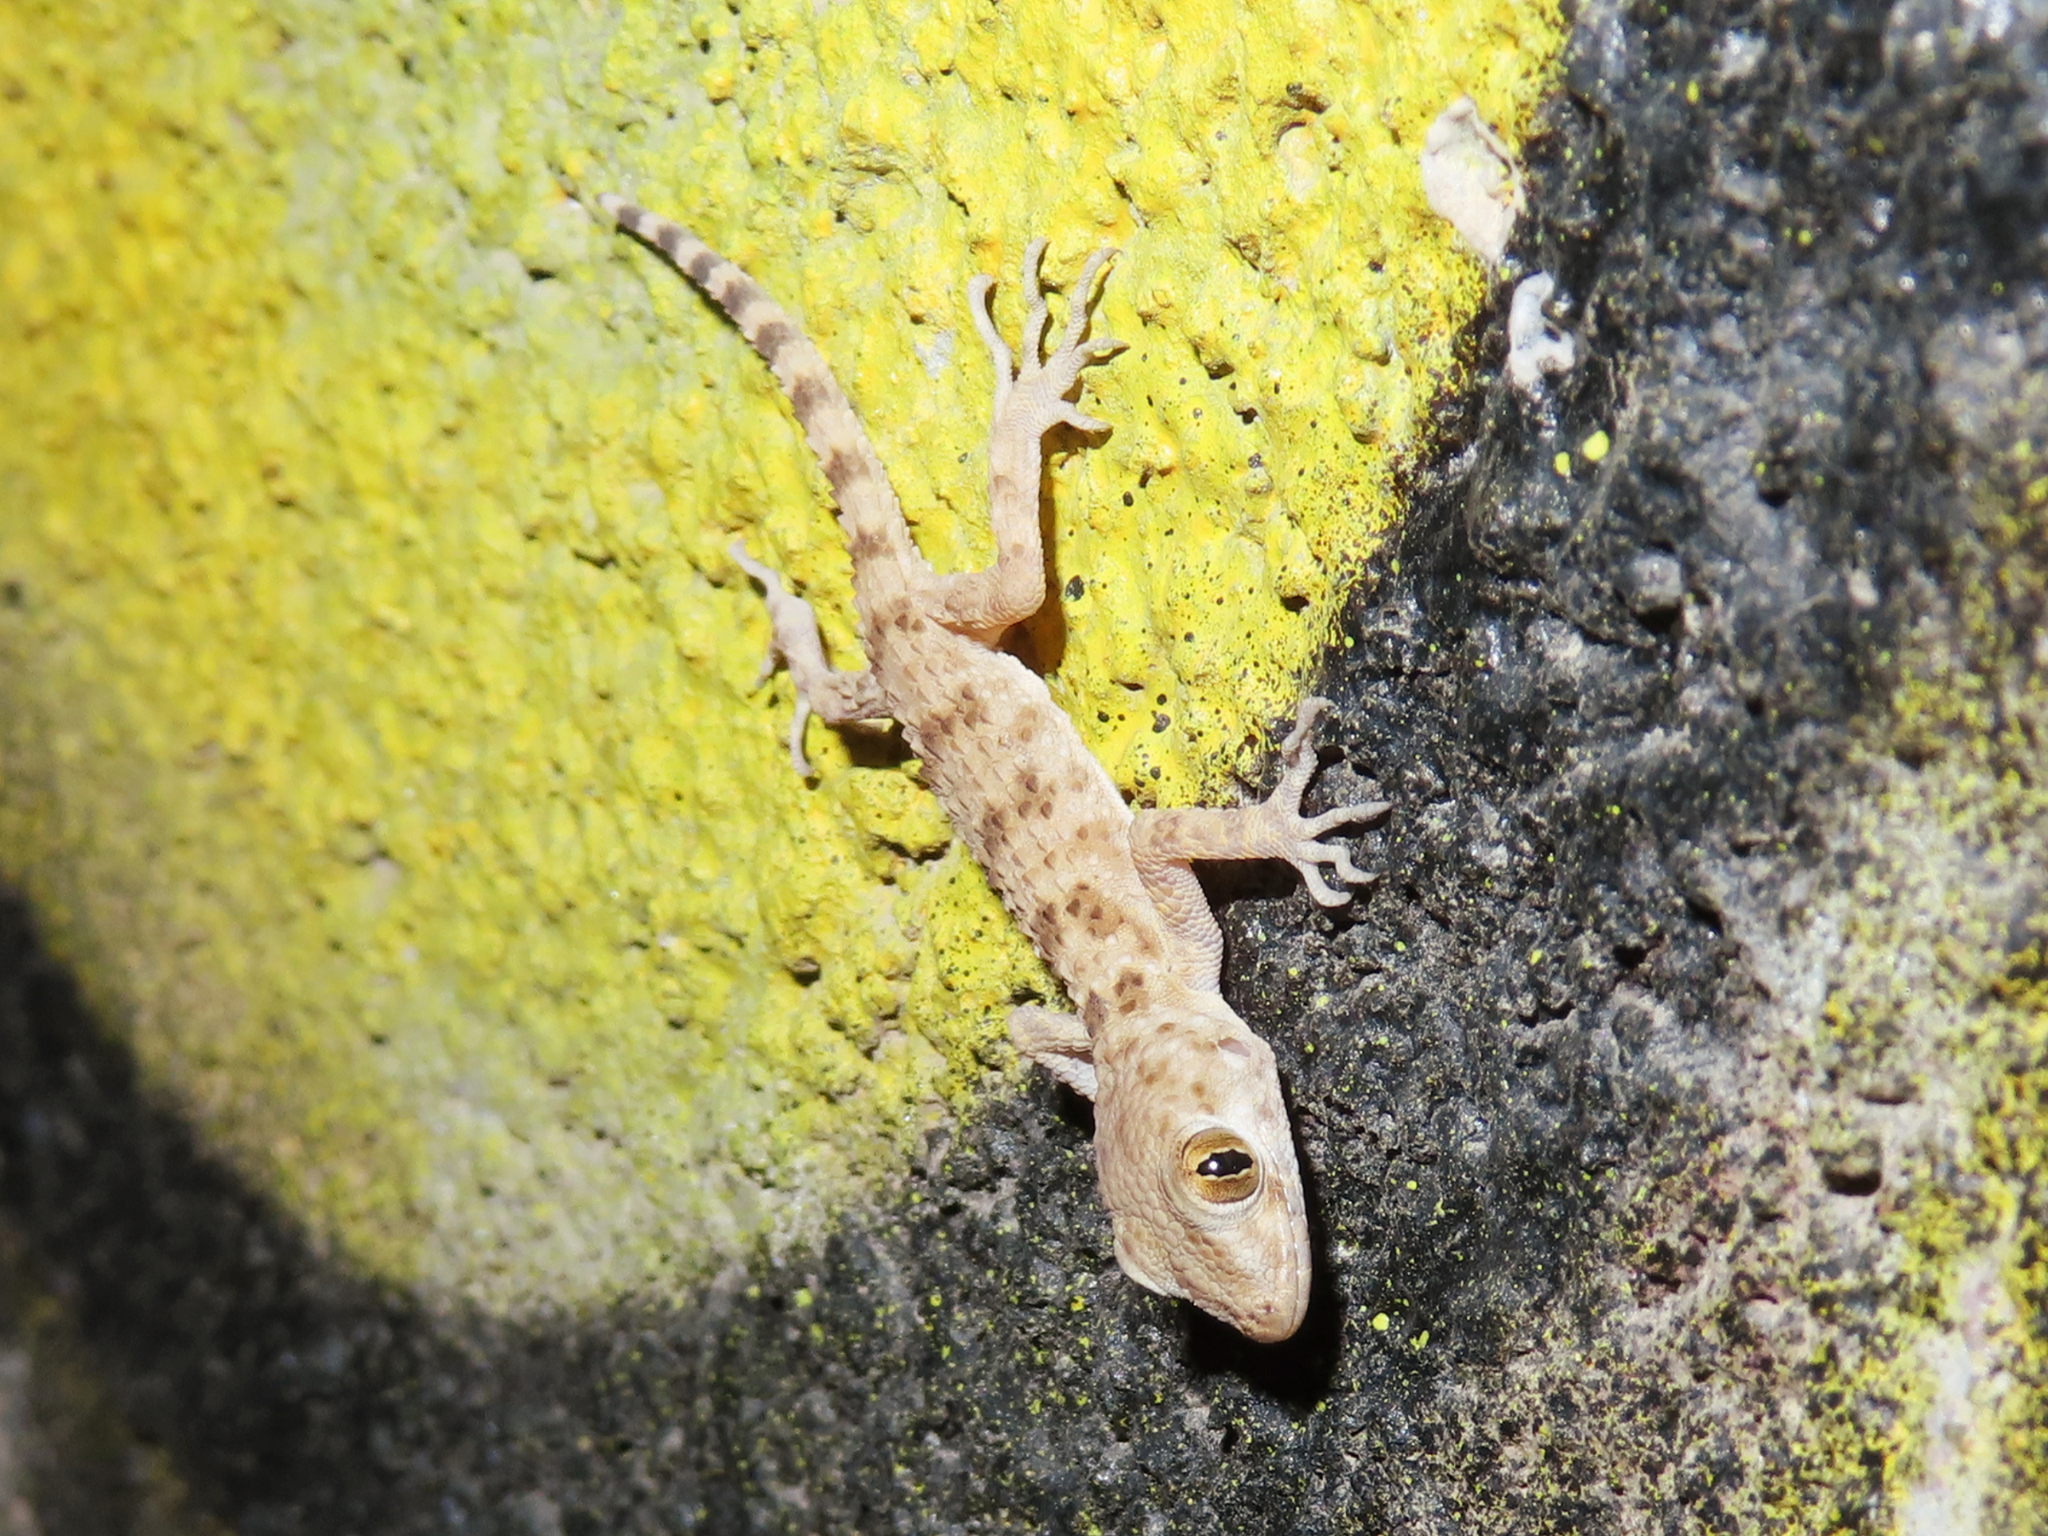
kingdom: Animalia
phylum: Chordata
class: Squamata
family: Gekkonidae
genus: Tenuidactylus
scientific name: Tenuidactylus caspius
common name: Caspian bent-toed gecko
